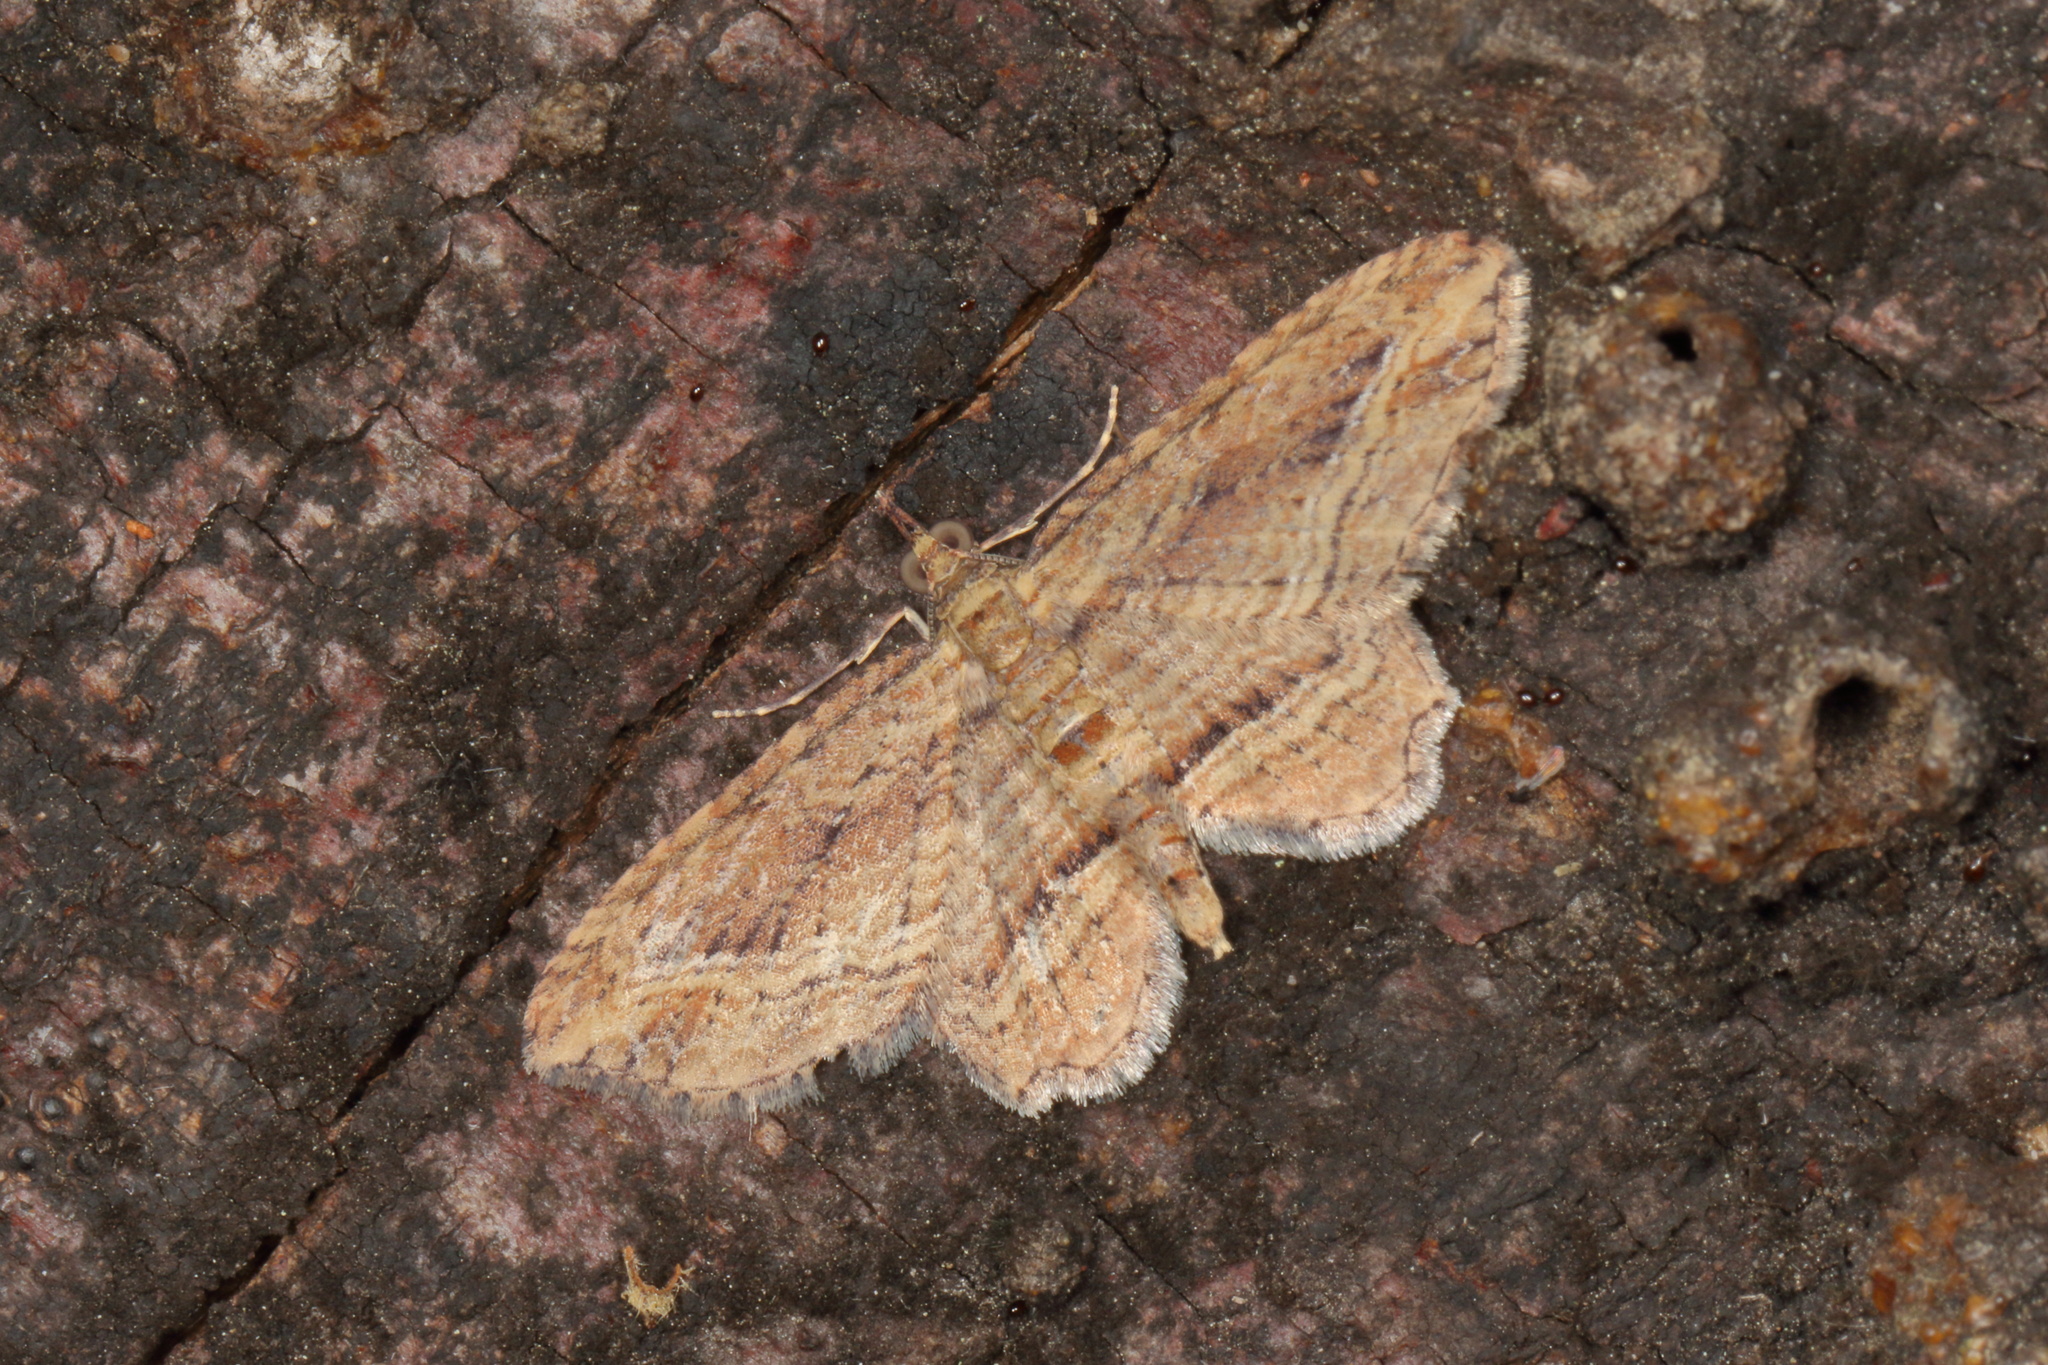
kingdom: Animalia
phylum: Arthropoda
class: Insecta
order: Lepidoptera
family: Geometridae
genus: Chloroclystis
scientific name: Chloroclystis filata
